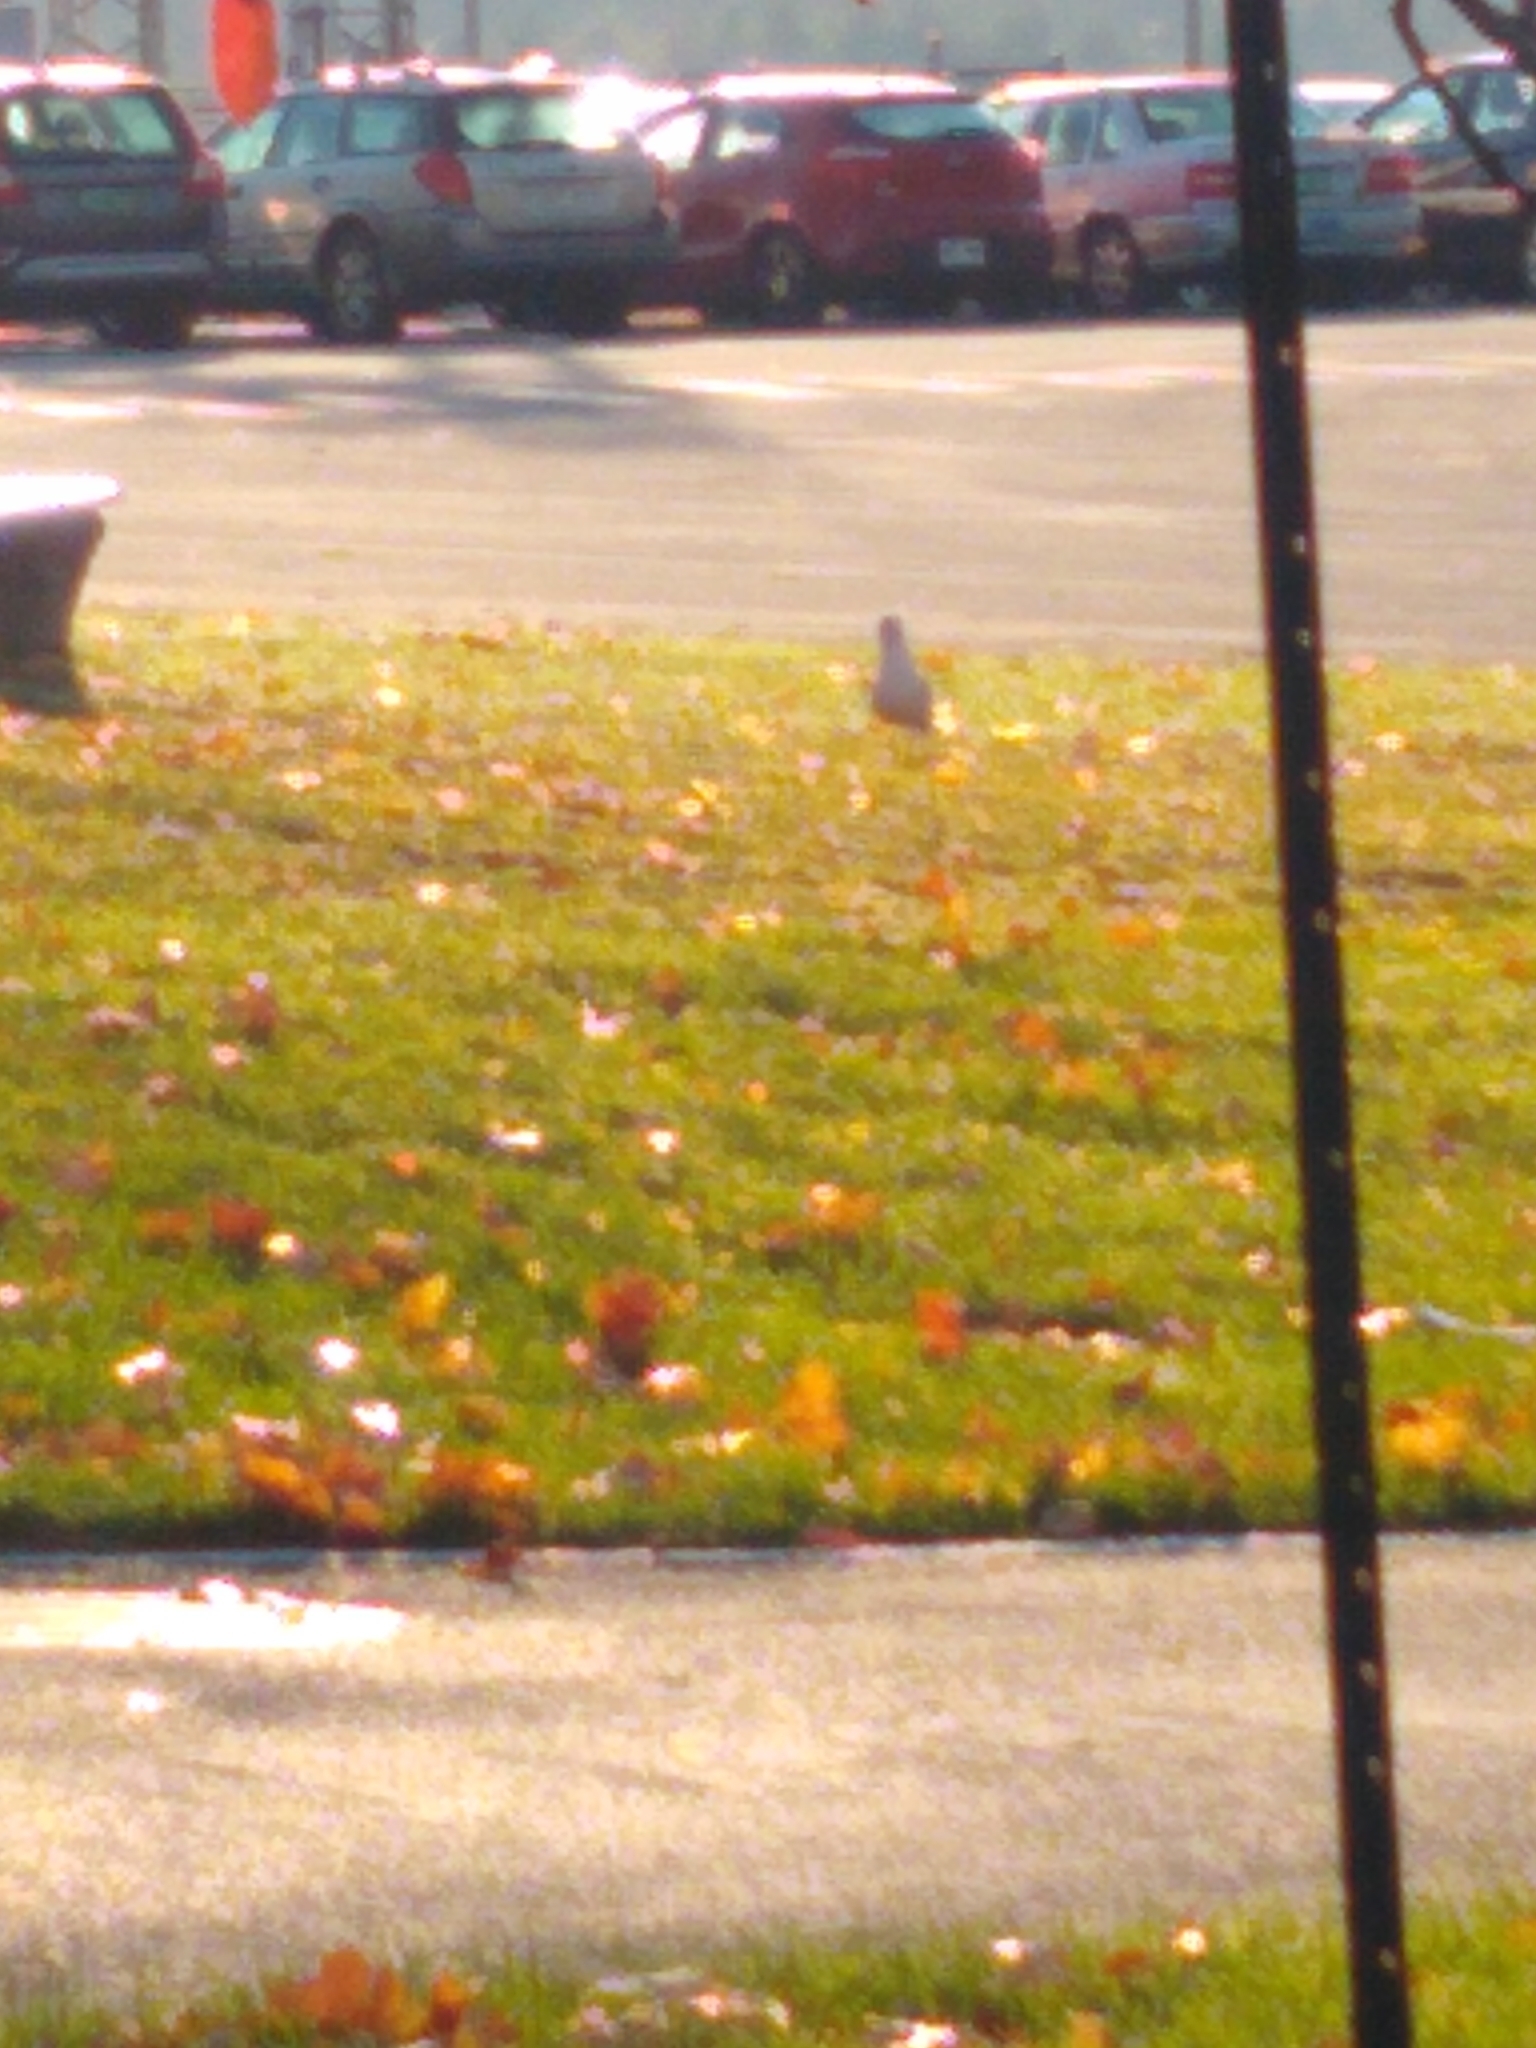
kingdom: Animalia
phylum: Chordata
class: Aves
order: Charadriiformes
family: Laridae
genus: Larus
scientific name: Larus delawarensis
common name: Ring-billed gull
